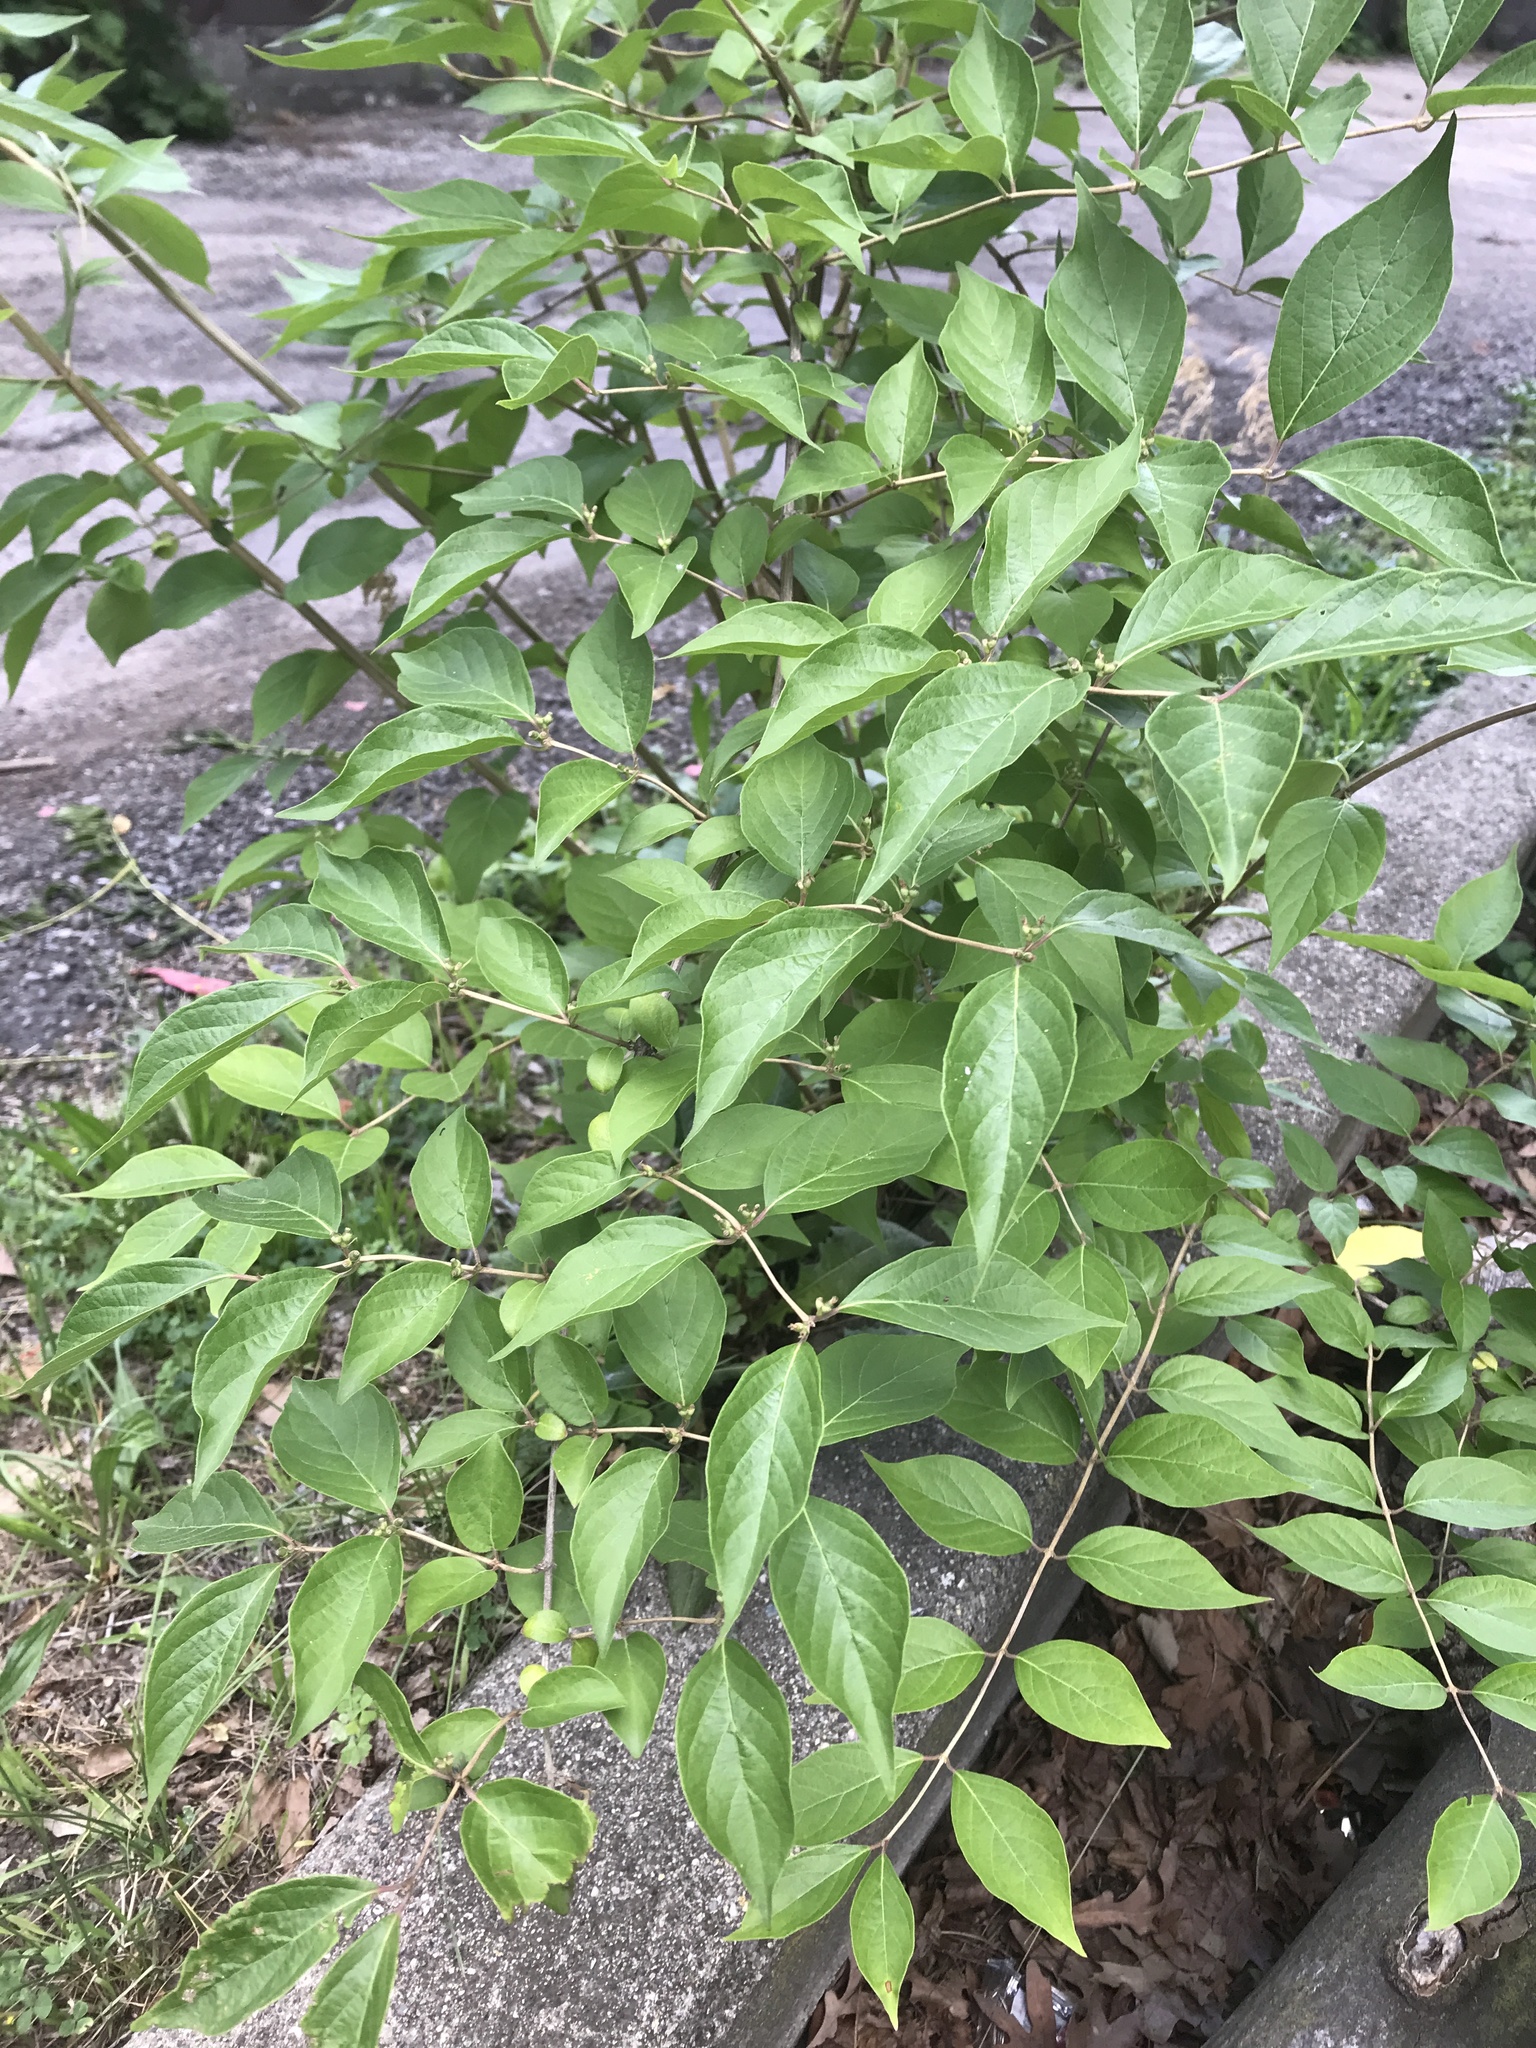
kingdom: Plantae
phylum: Tracheophyta
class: Magnoliopsida
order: Dipsacales
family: Caprifoliaceae
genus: Lonicera
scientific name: Lonicera maackii
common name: Amur honeysuckle
